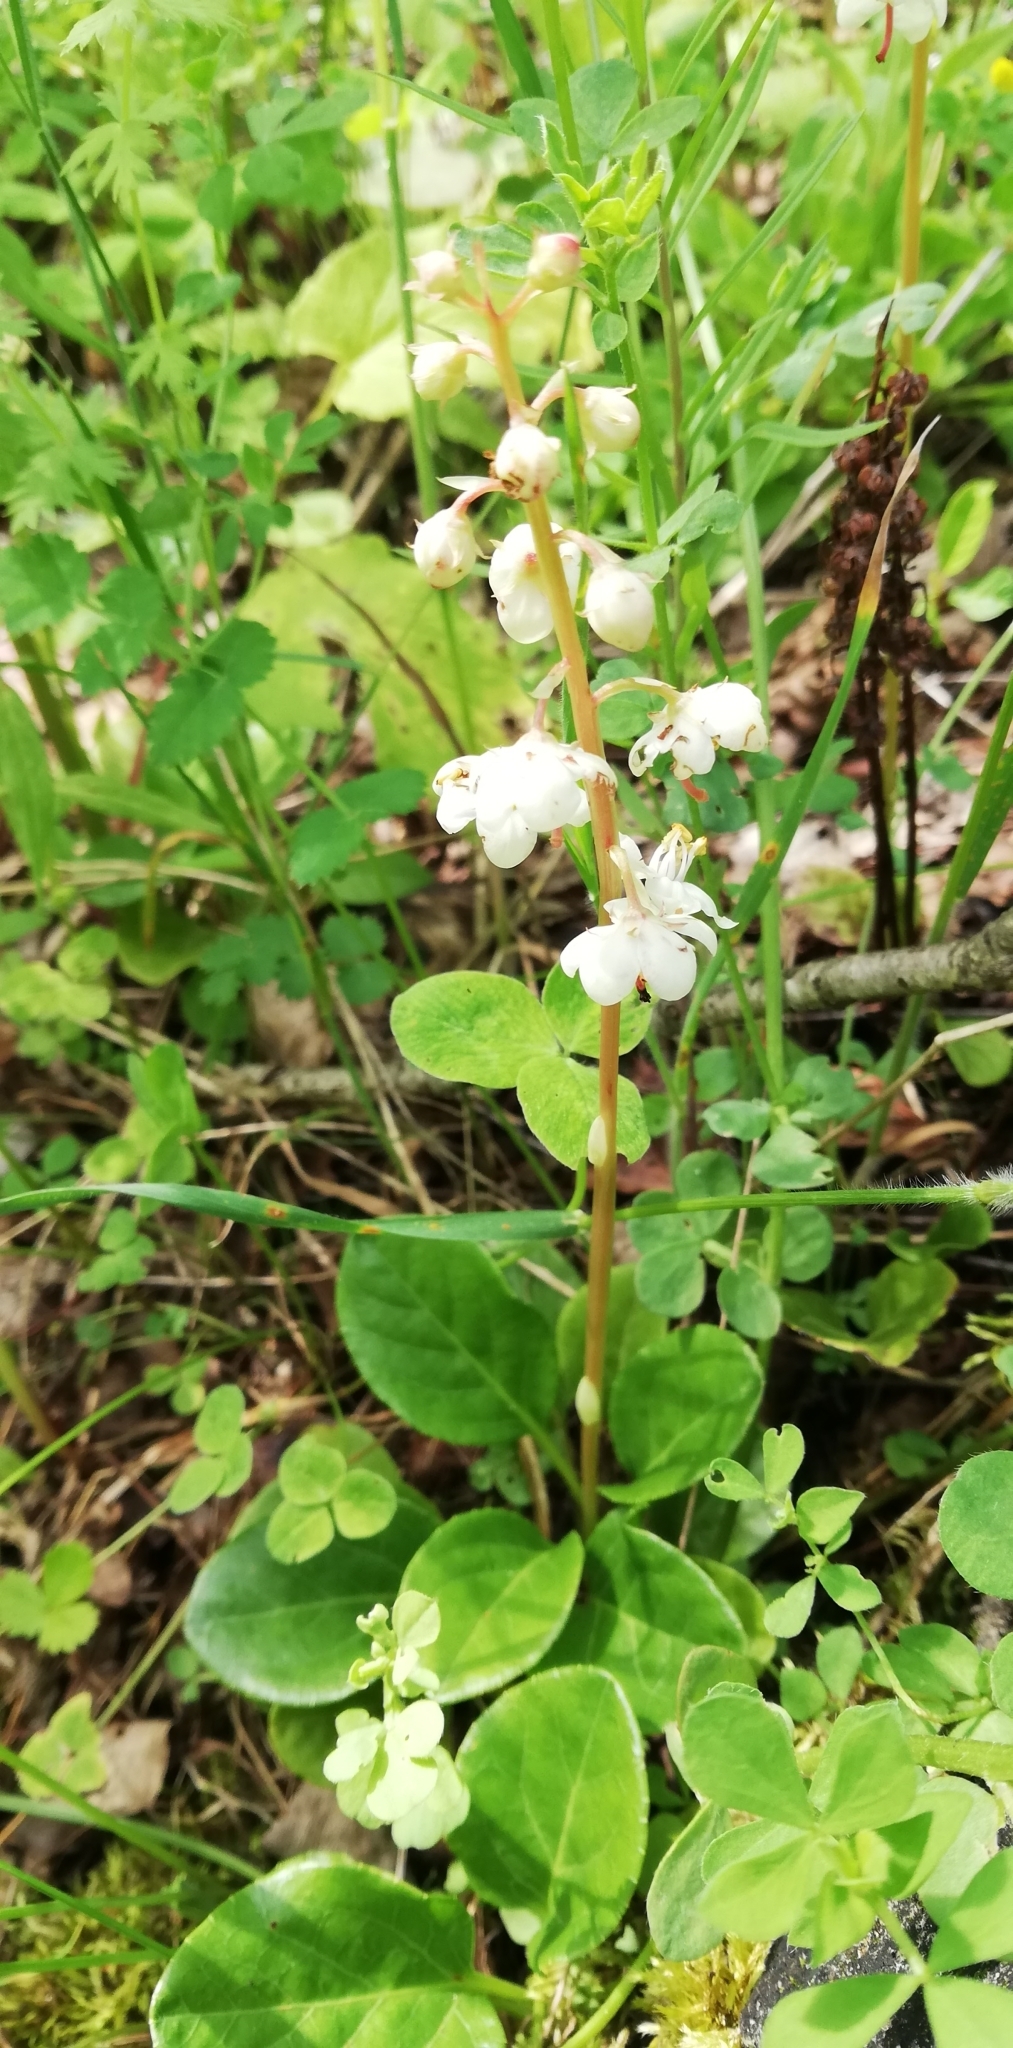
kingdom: Plantae
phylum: Tracheophyta
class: Magnoliopsida
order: Ericales
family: Ericaceae
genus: Pyrola
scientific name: Pyrola rotundifolia
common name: Round-leaved wintergreen
